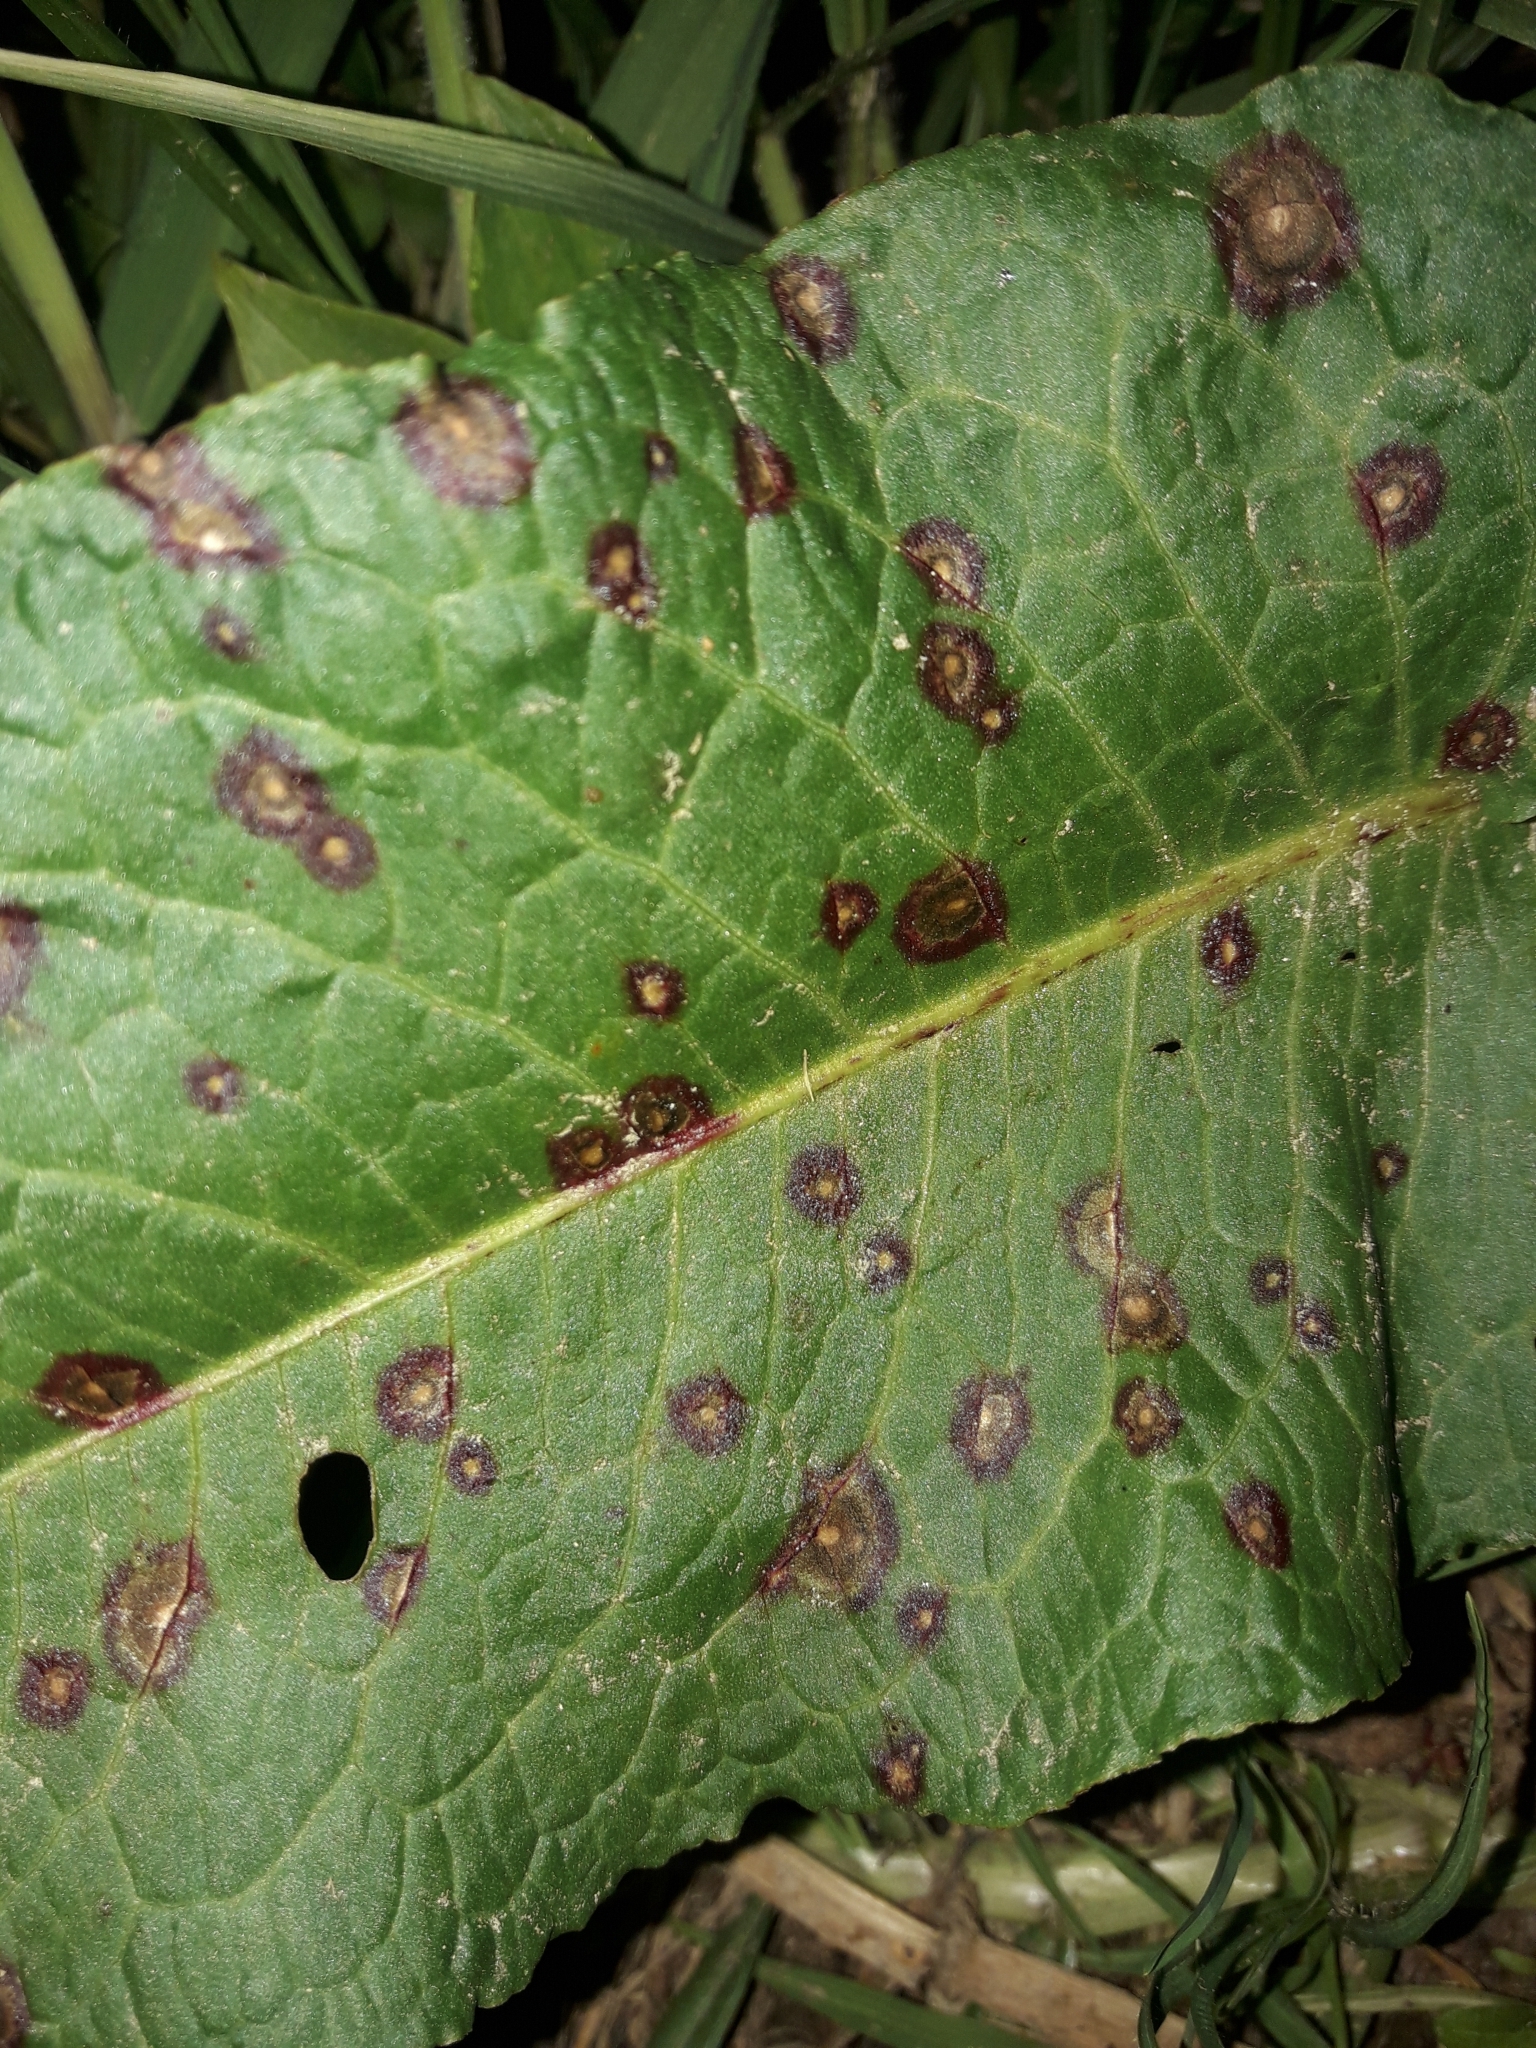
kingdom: Fungi
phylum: Ascomycota
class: Dothideomycetes
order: Mycosphaerellales
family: Mycosphaerellaceae
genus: Ramularia
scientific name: Ramularia rubella
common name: Red dock spot
